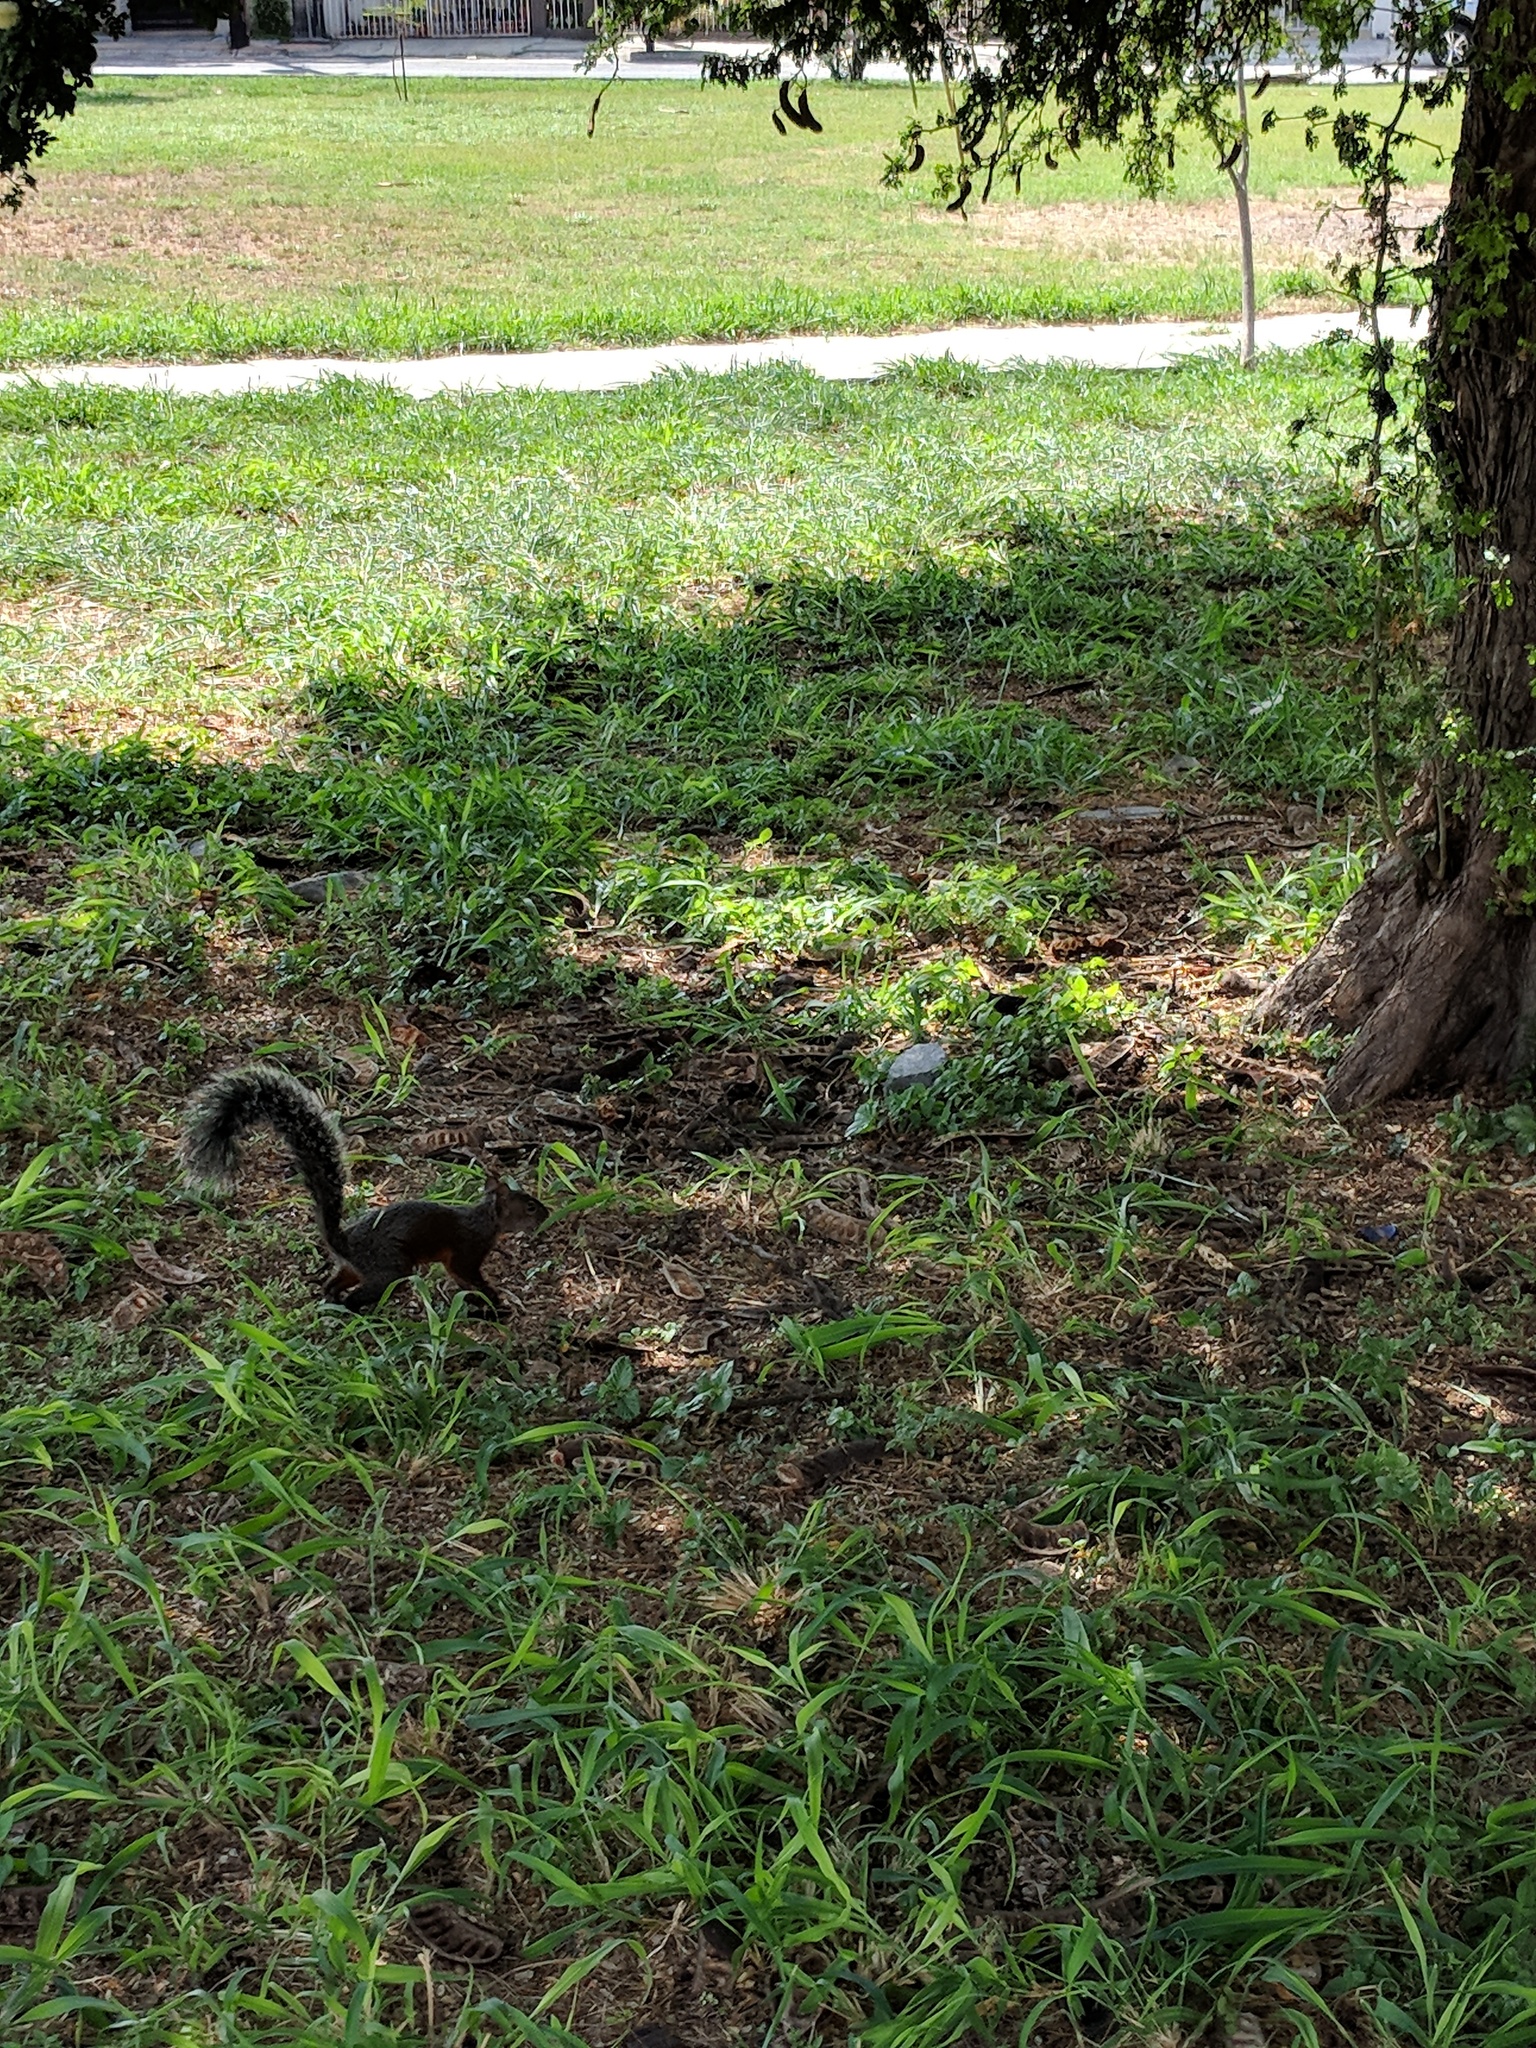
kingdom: Animalia
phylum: Chordata
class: Mammalia
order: Rodentia
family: Sciuridae
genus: Sciurus
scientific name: Sciurus aureogaster
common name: Red-bellied squirrel
